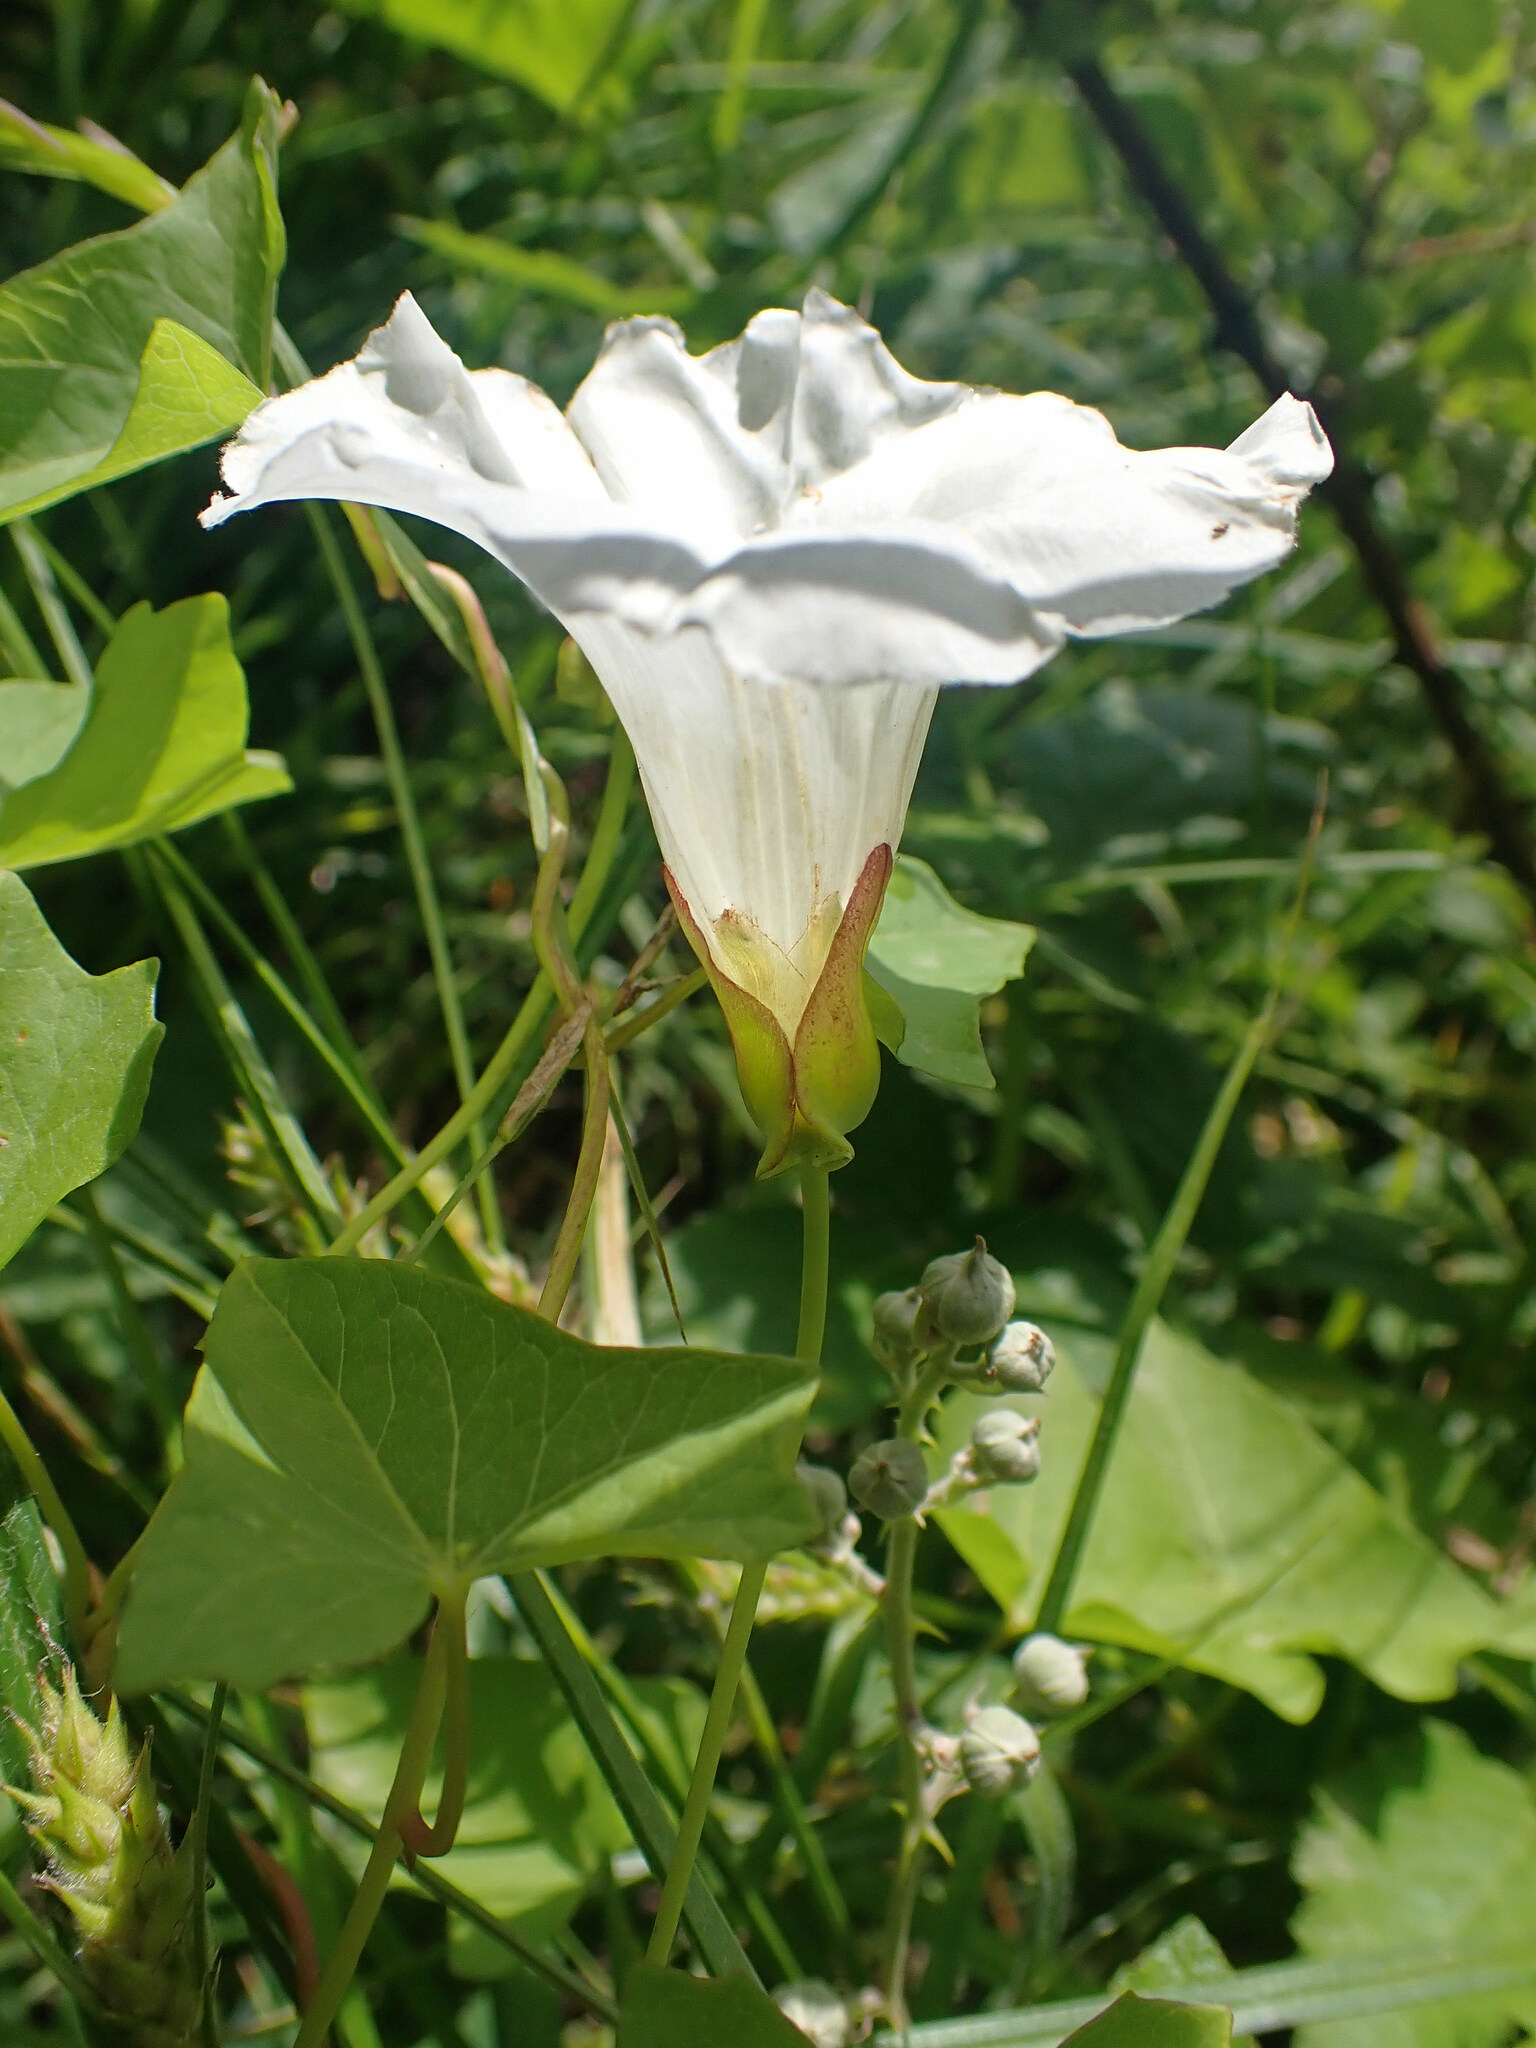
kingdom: Plantae
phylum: Tracheophyta
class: Magnoliopsida
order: Solanales
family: Convolvulaceae
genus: Calystegia
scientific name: Calystegia sepium
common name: Hedge bindweed
